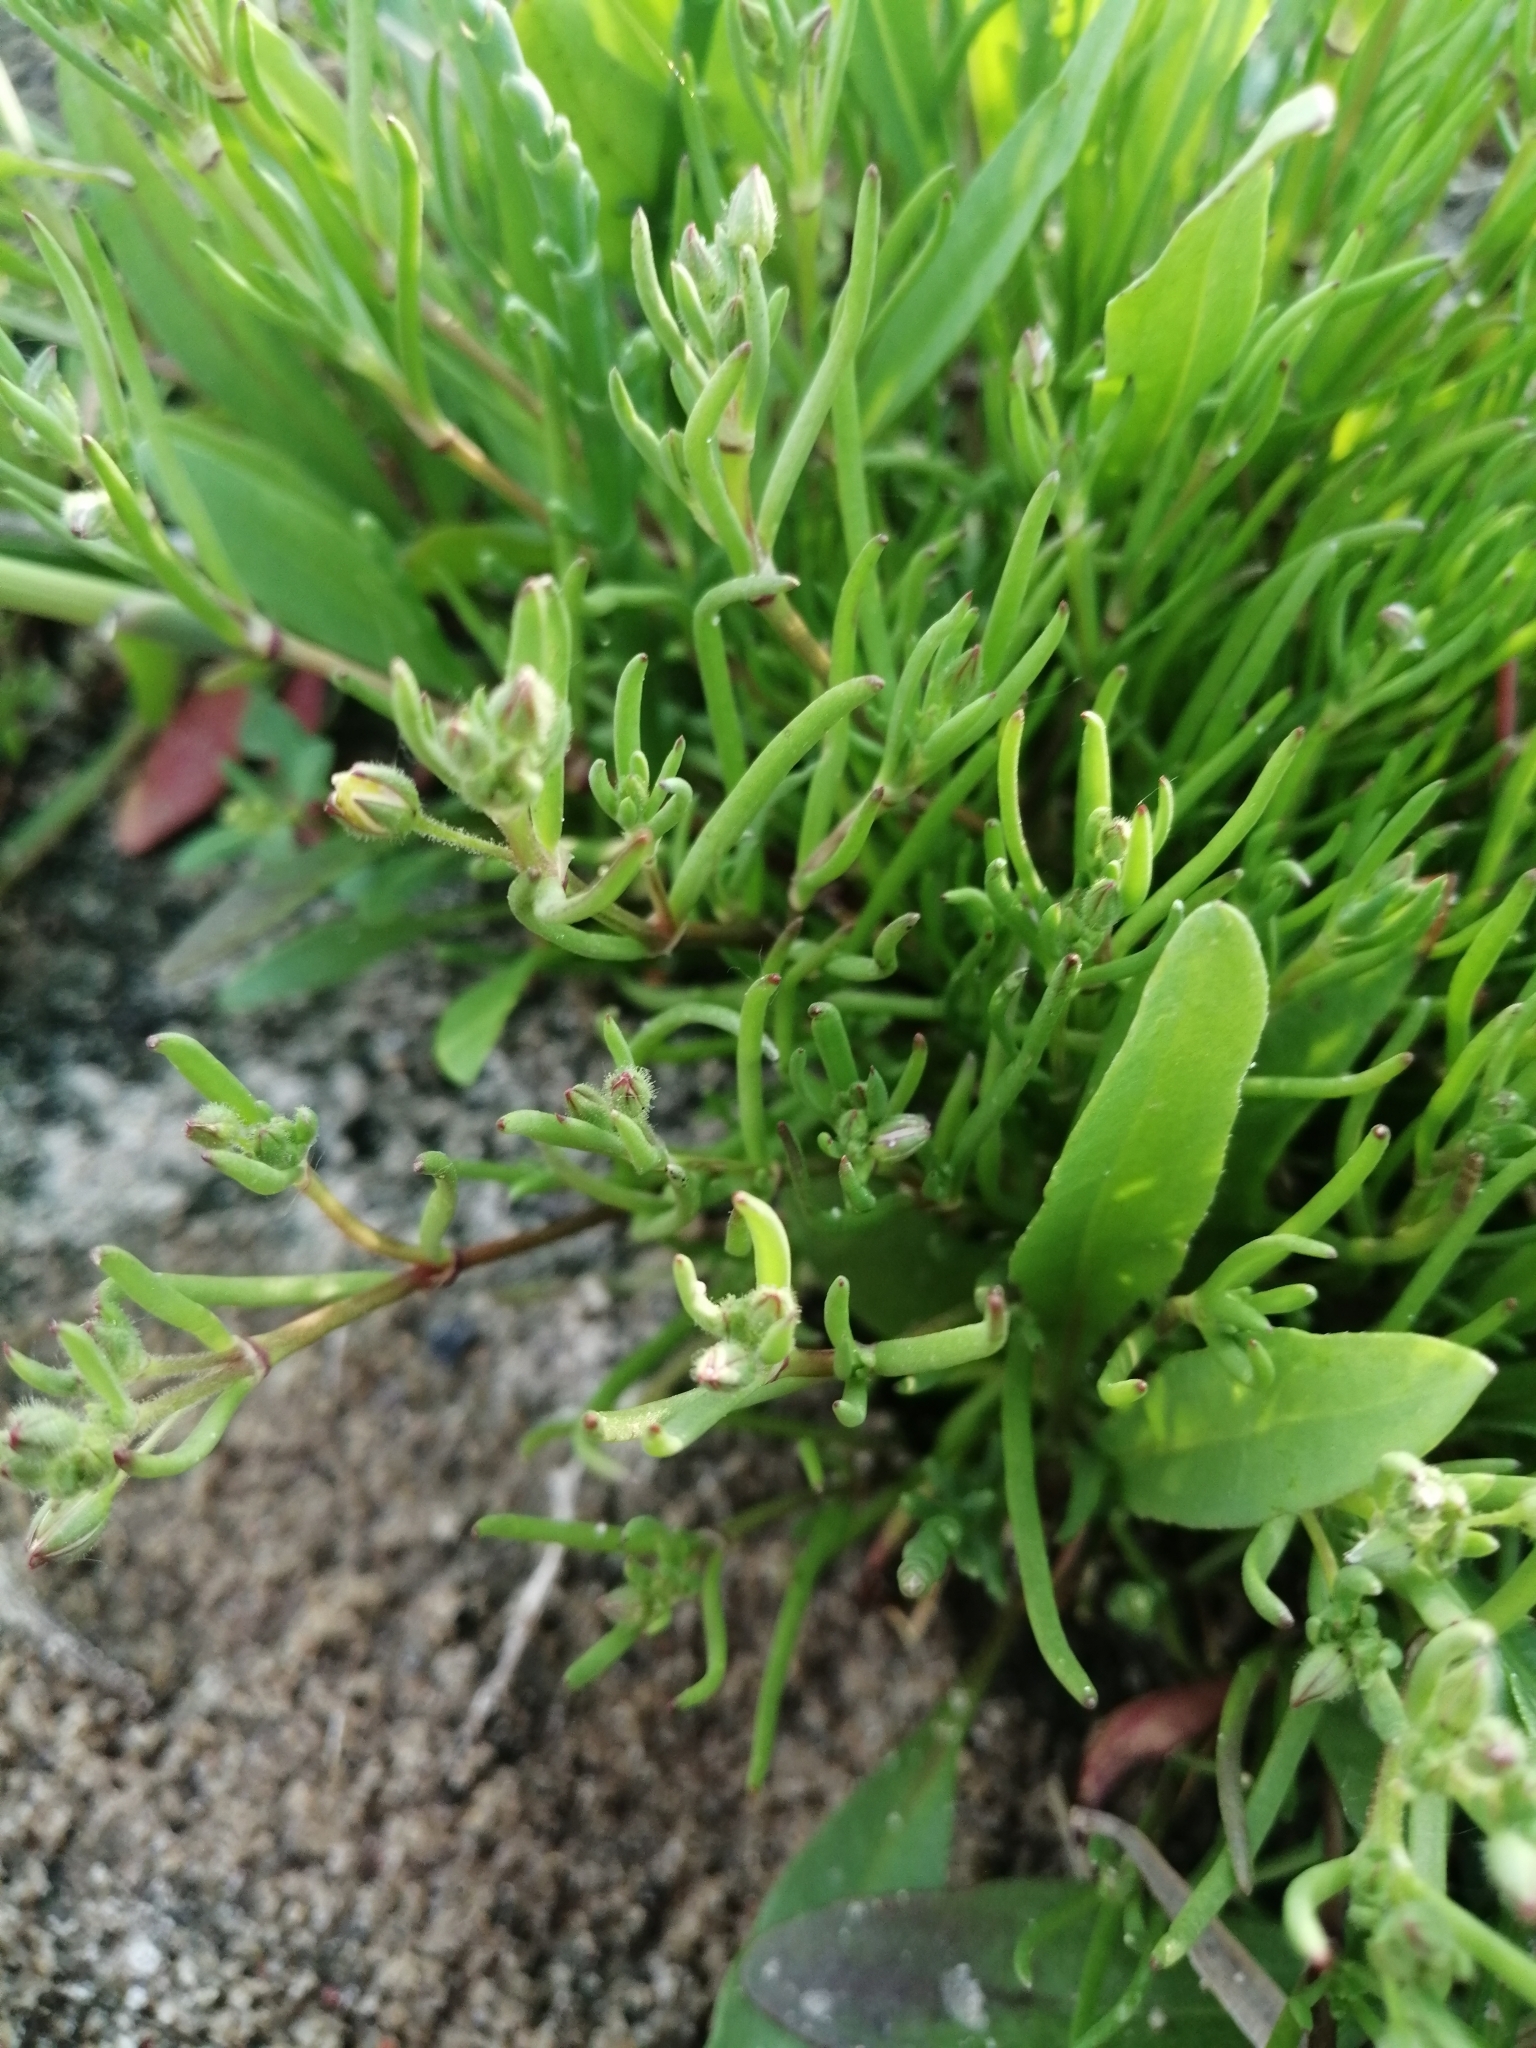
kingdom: Plantae
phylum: Tracheophyta
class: Magnoliopsida
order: Caryophyllales
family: Caryophyllaceae
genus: Spergularia
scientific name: Spergularia marina
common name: Lesser sea-spurrey
